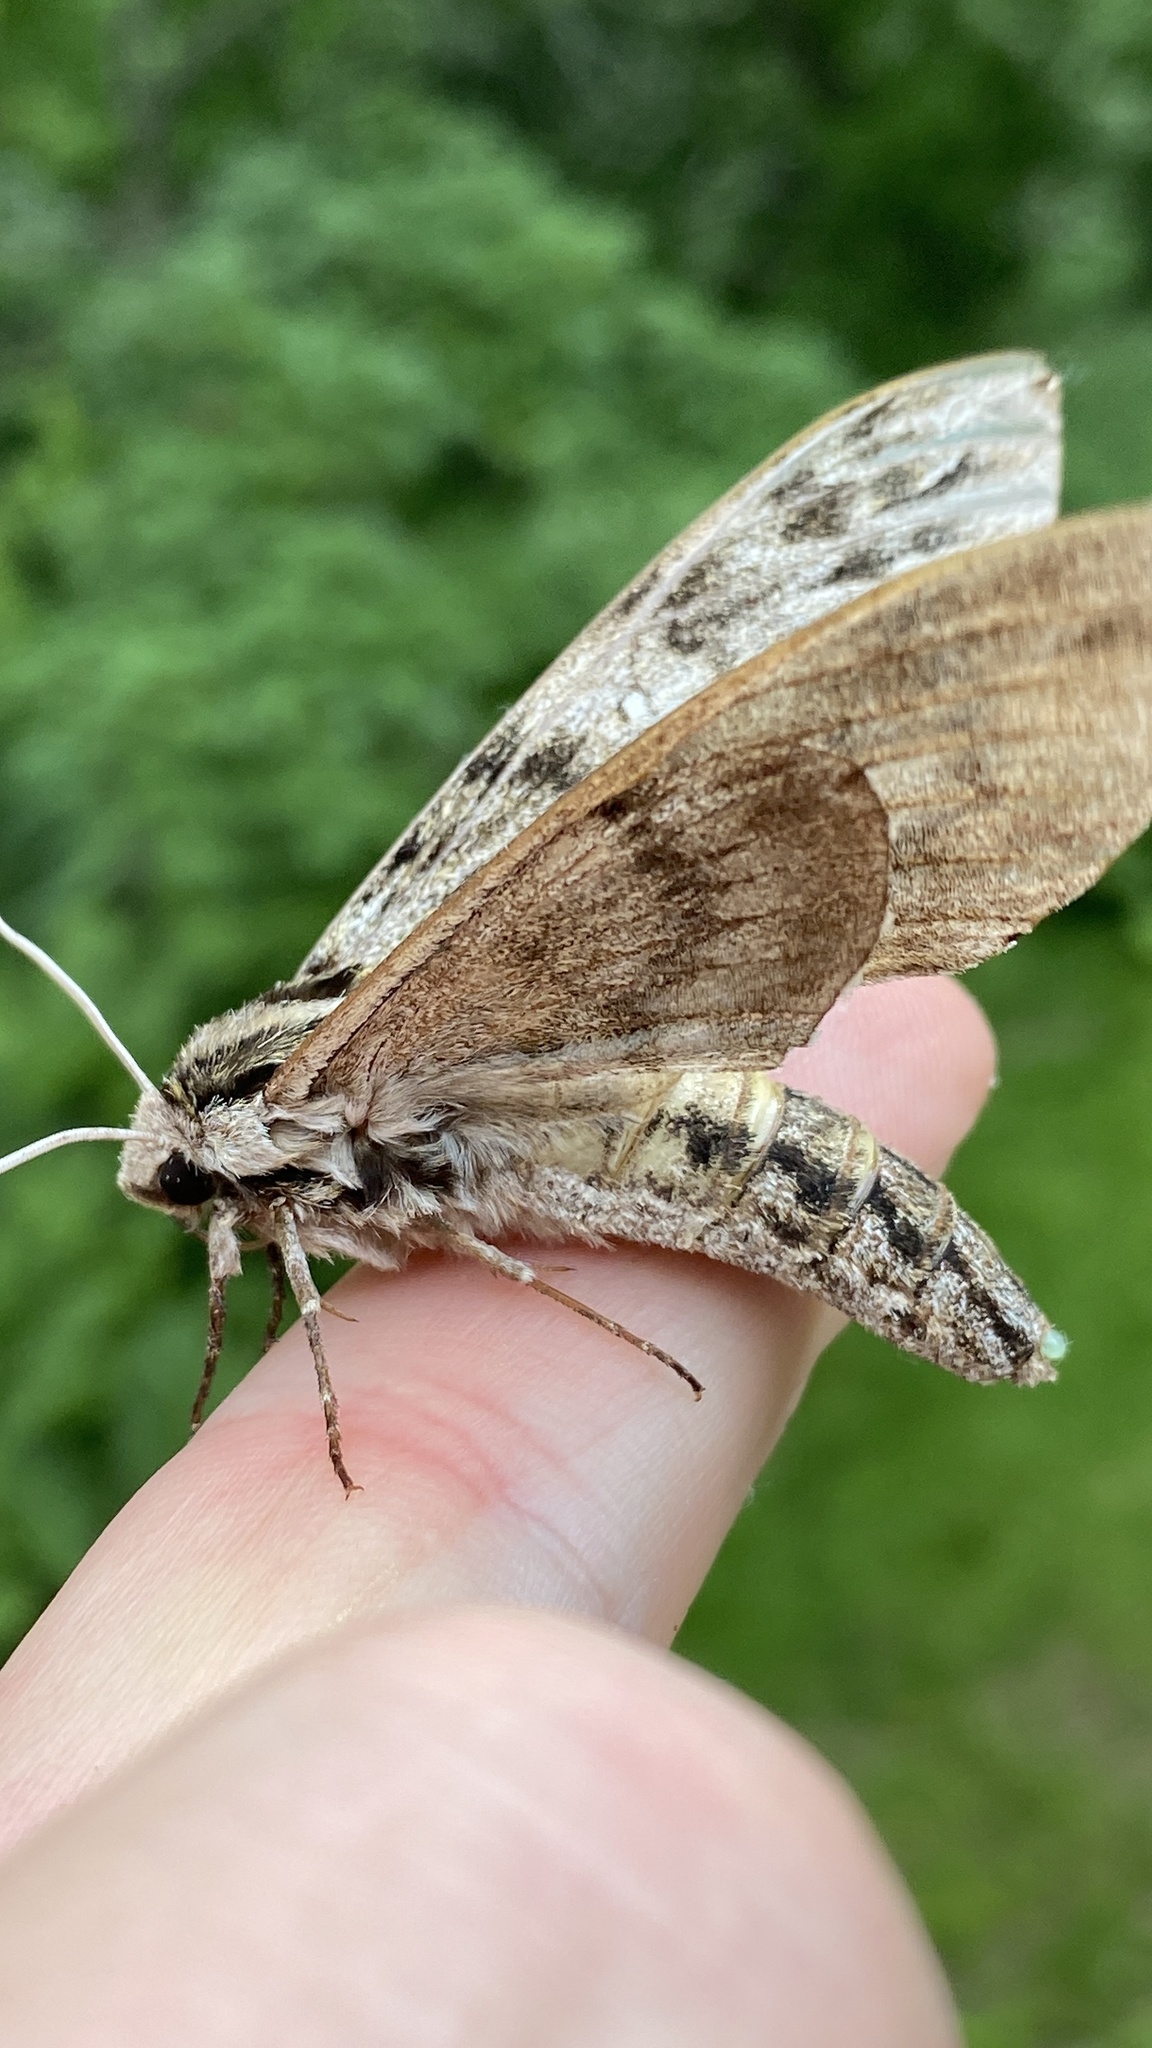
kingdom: Animalia
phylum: Arthropoda
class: Insecta
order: Lepidoptera
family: Sphingidae
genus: Ceratomia
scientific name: Ceratomia undulosa
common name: Waved sphinx
